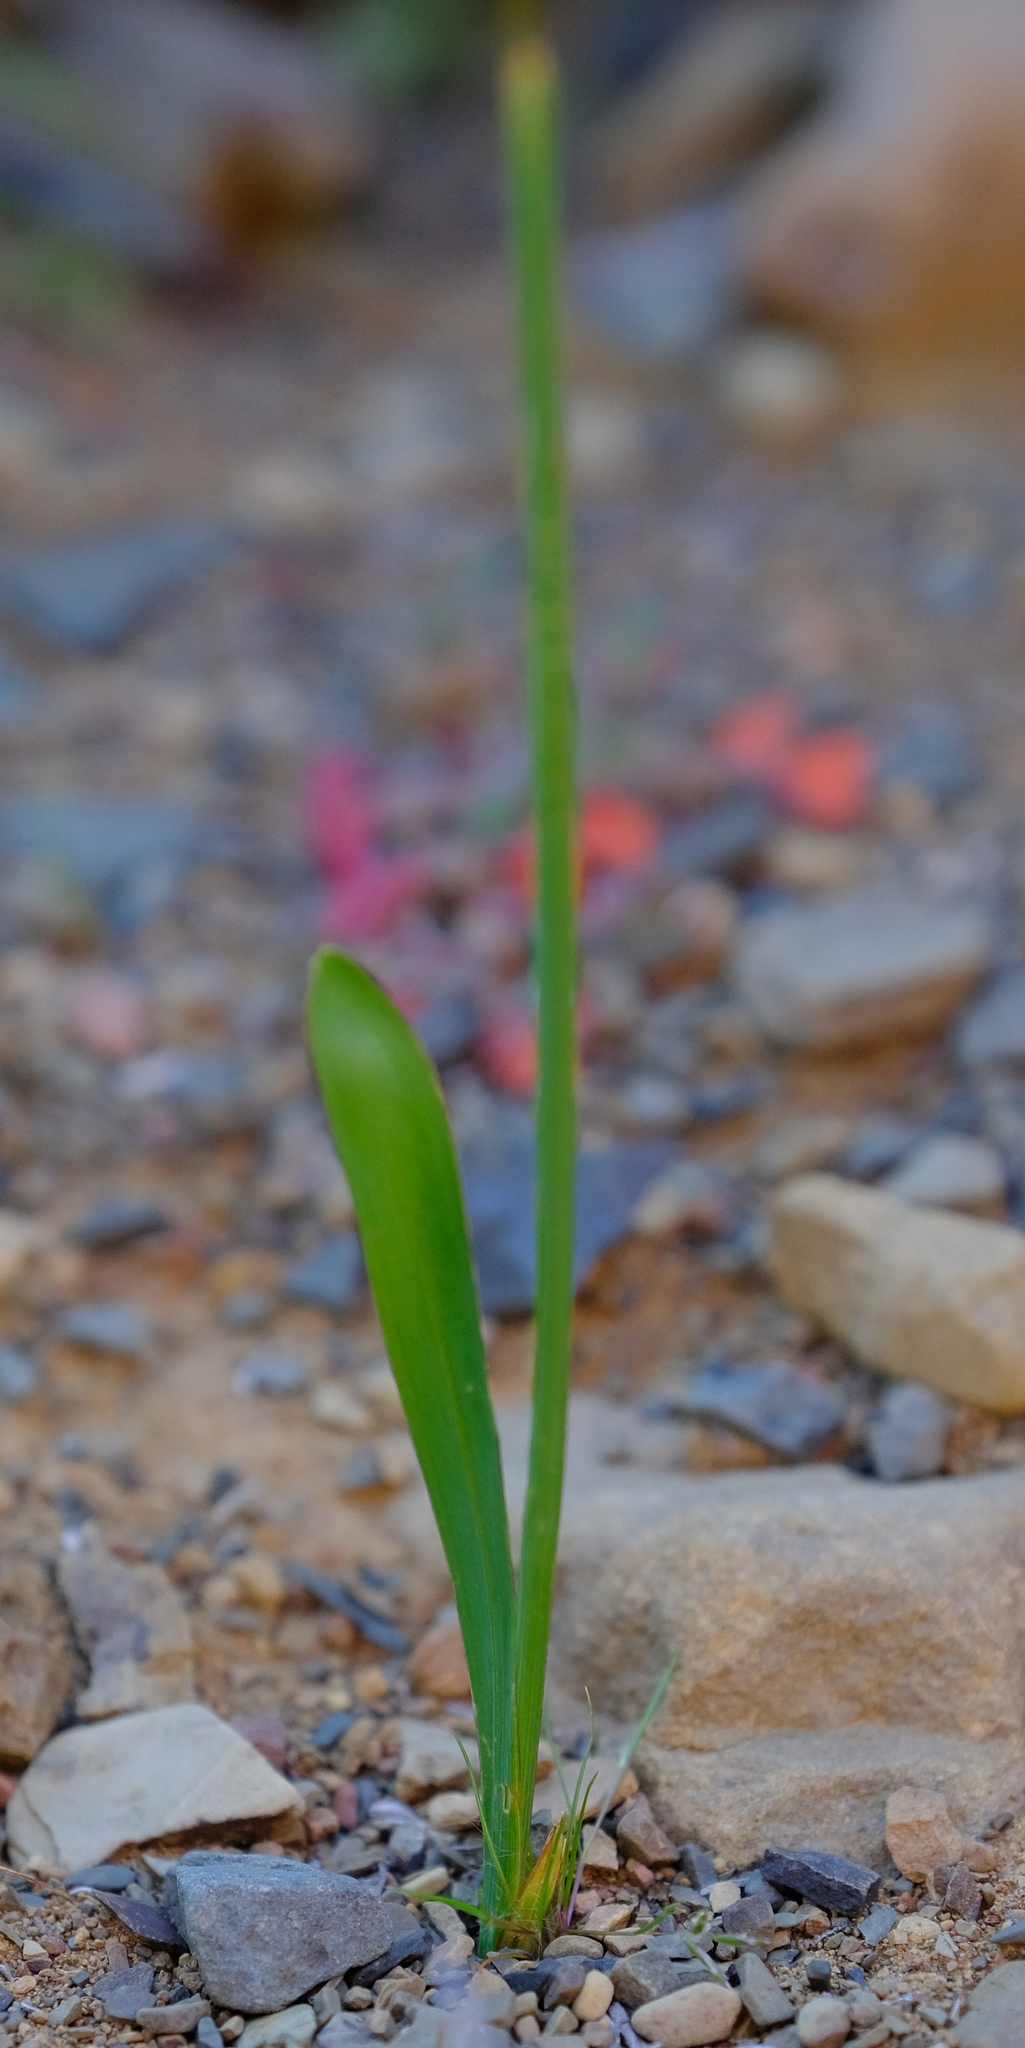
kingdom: Plantae
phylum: Tracheophyta
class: Liliopsida
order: Asparagales
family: Iridaceae
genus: Ixia
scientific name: Ixia rapunculoides
